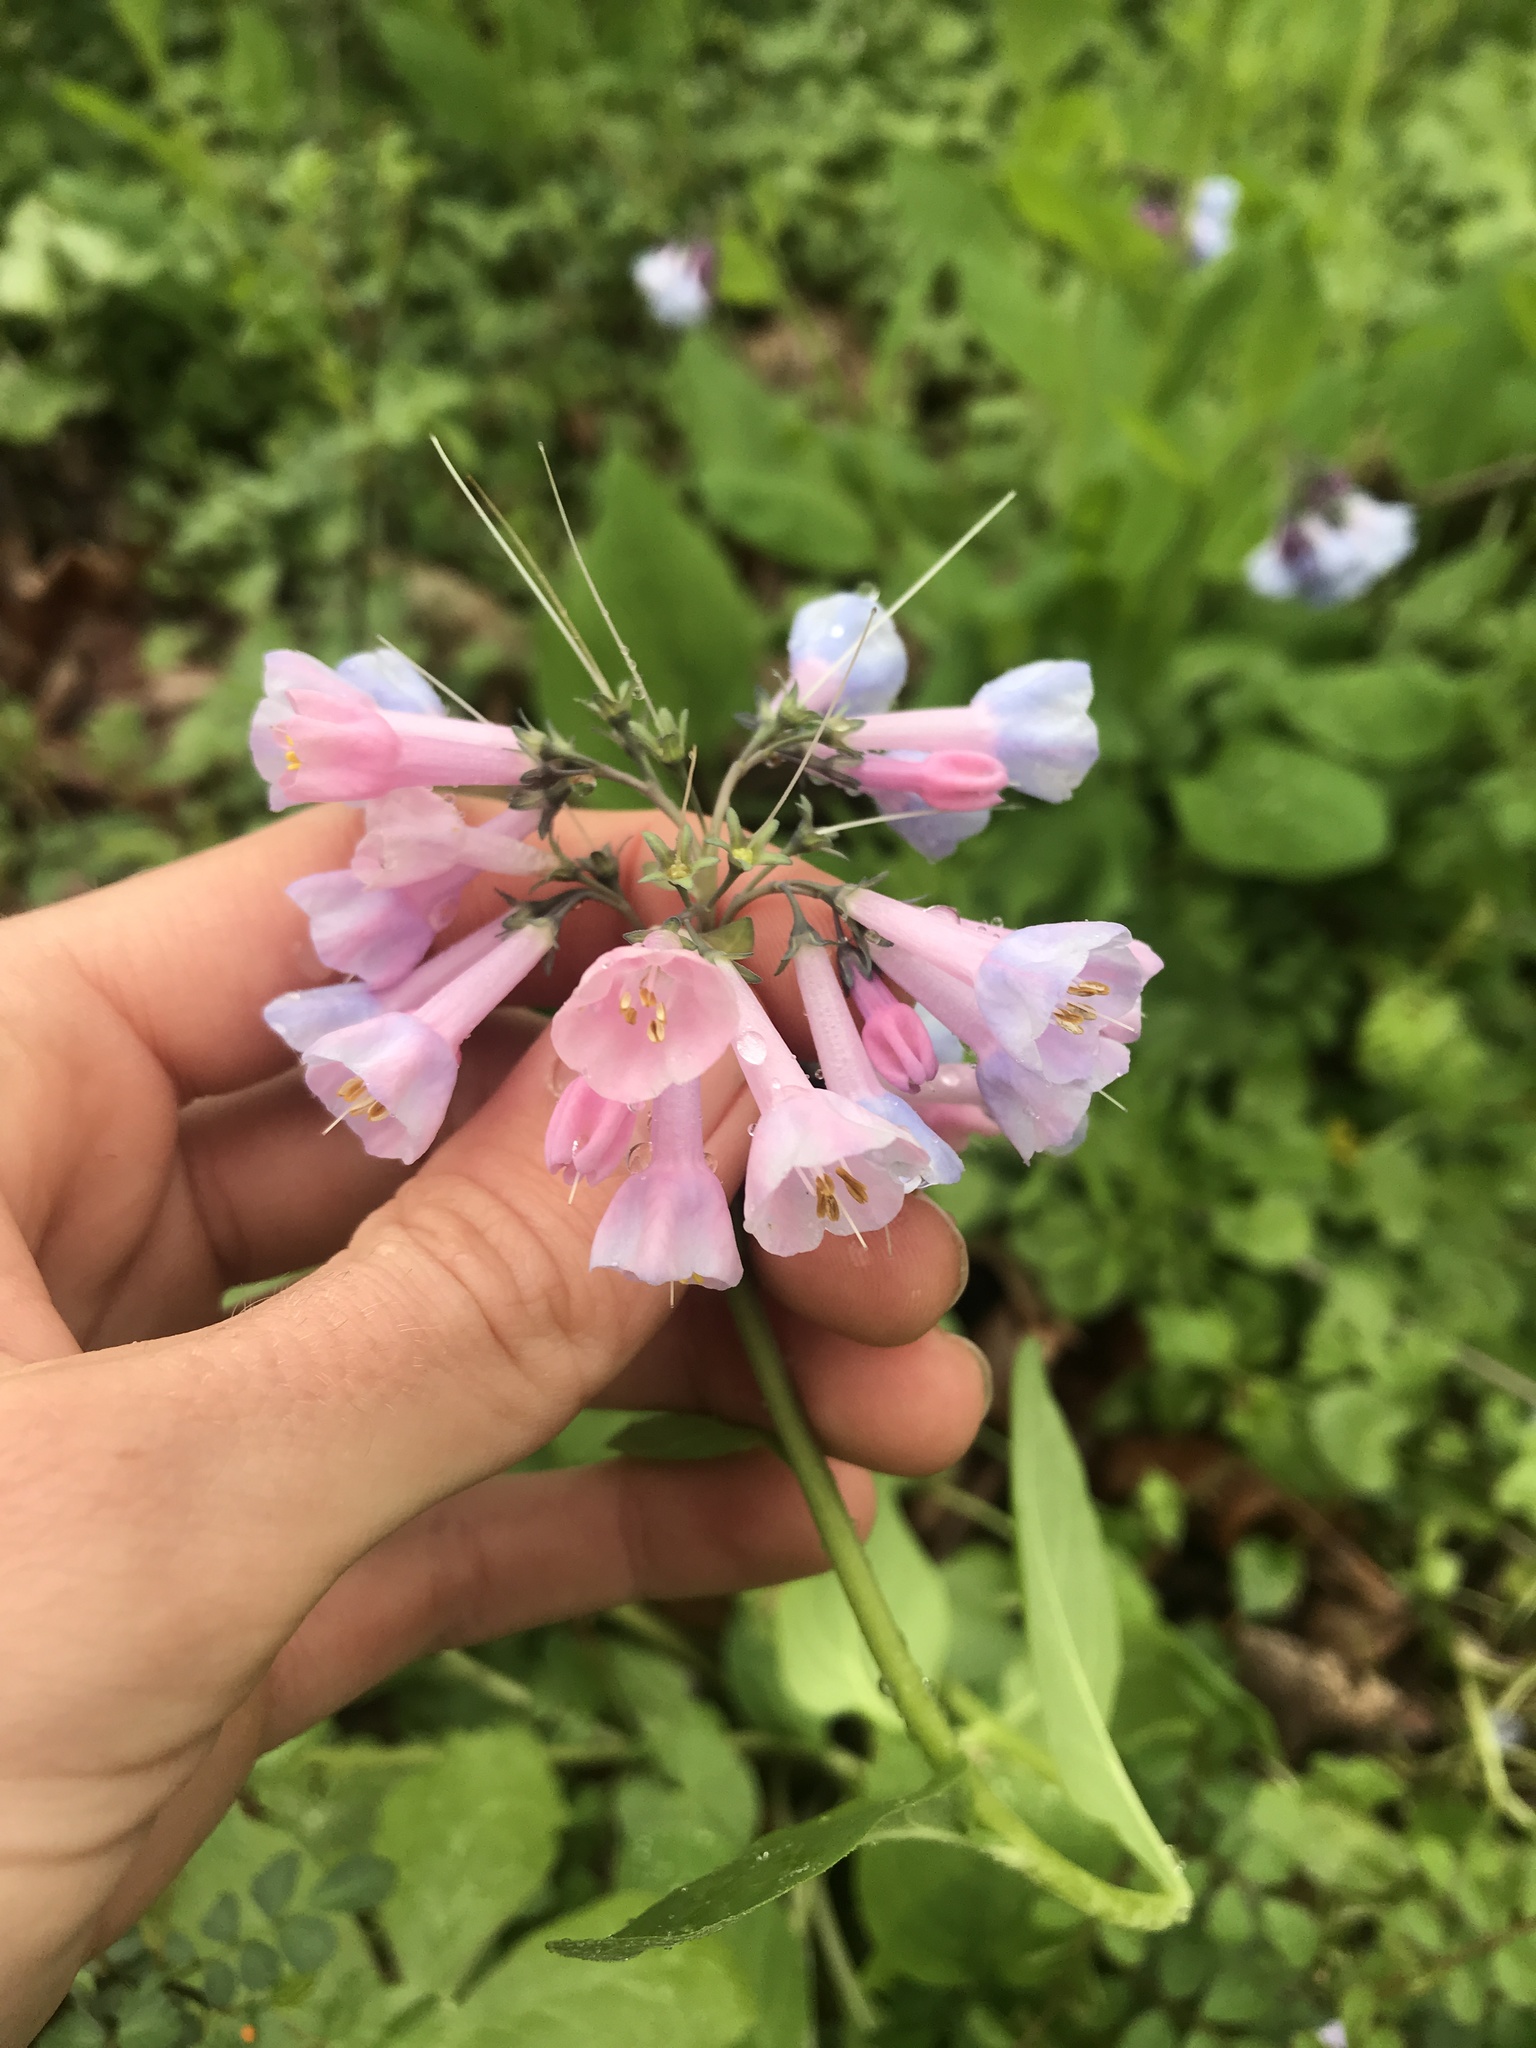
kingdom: Plantae
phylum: Tracheophyta
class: Magnoliopsida
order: Boraginales
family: Boraginaceae
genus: Mertensia
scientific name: Mertensia virginica
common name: Virginia bluebells
